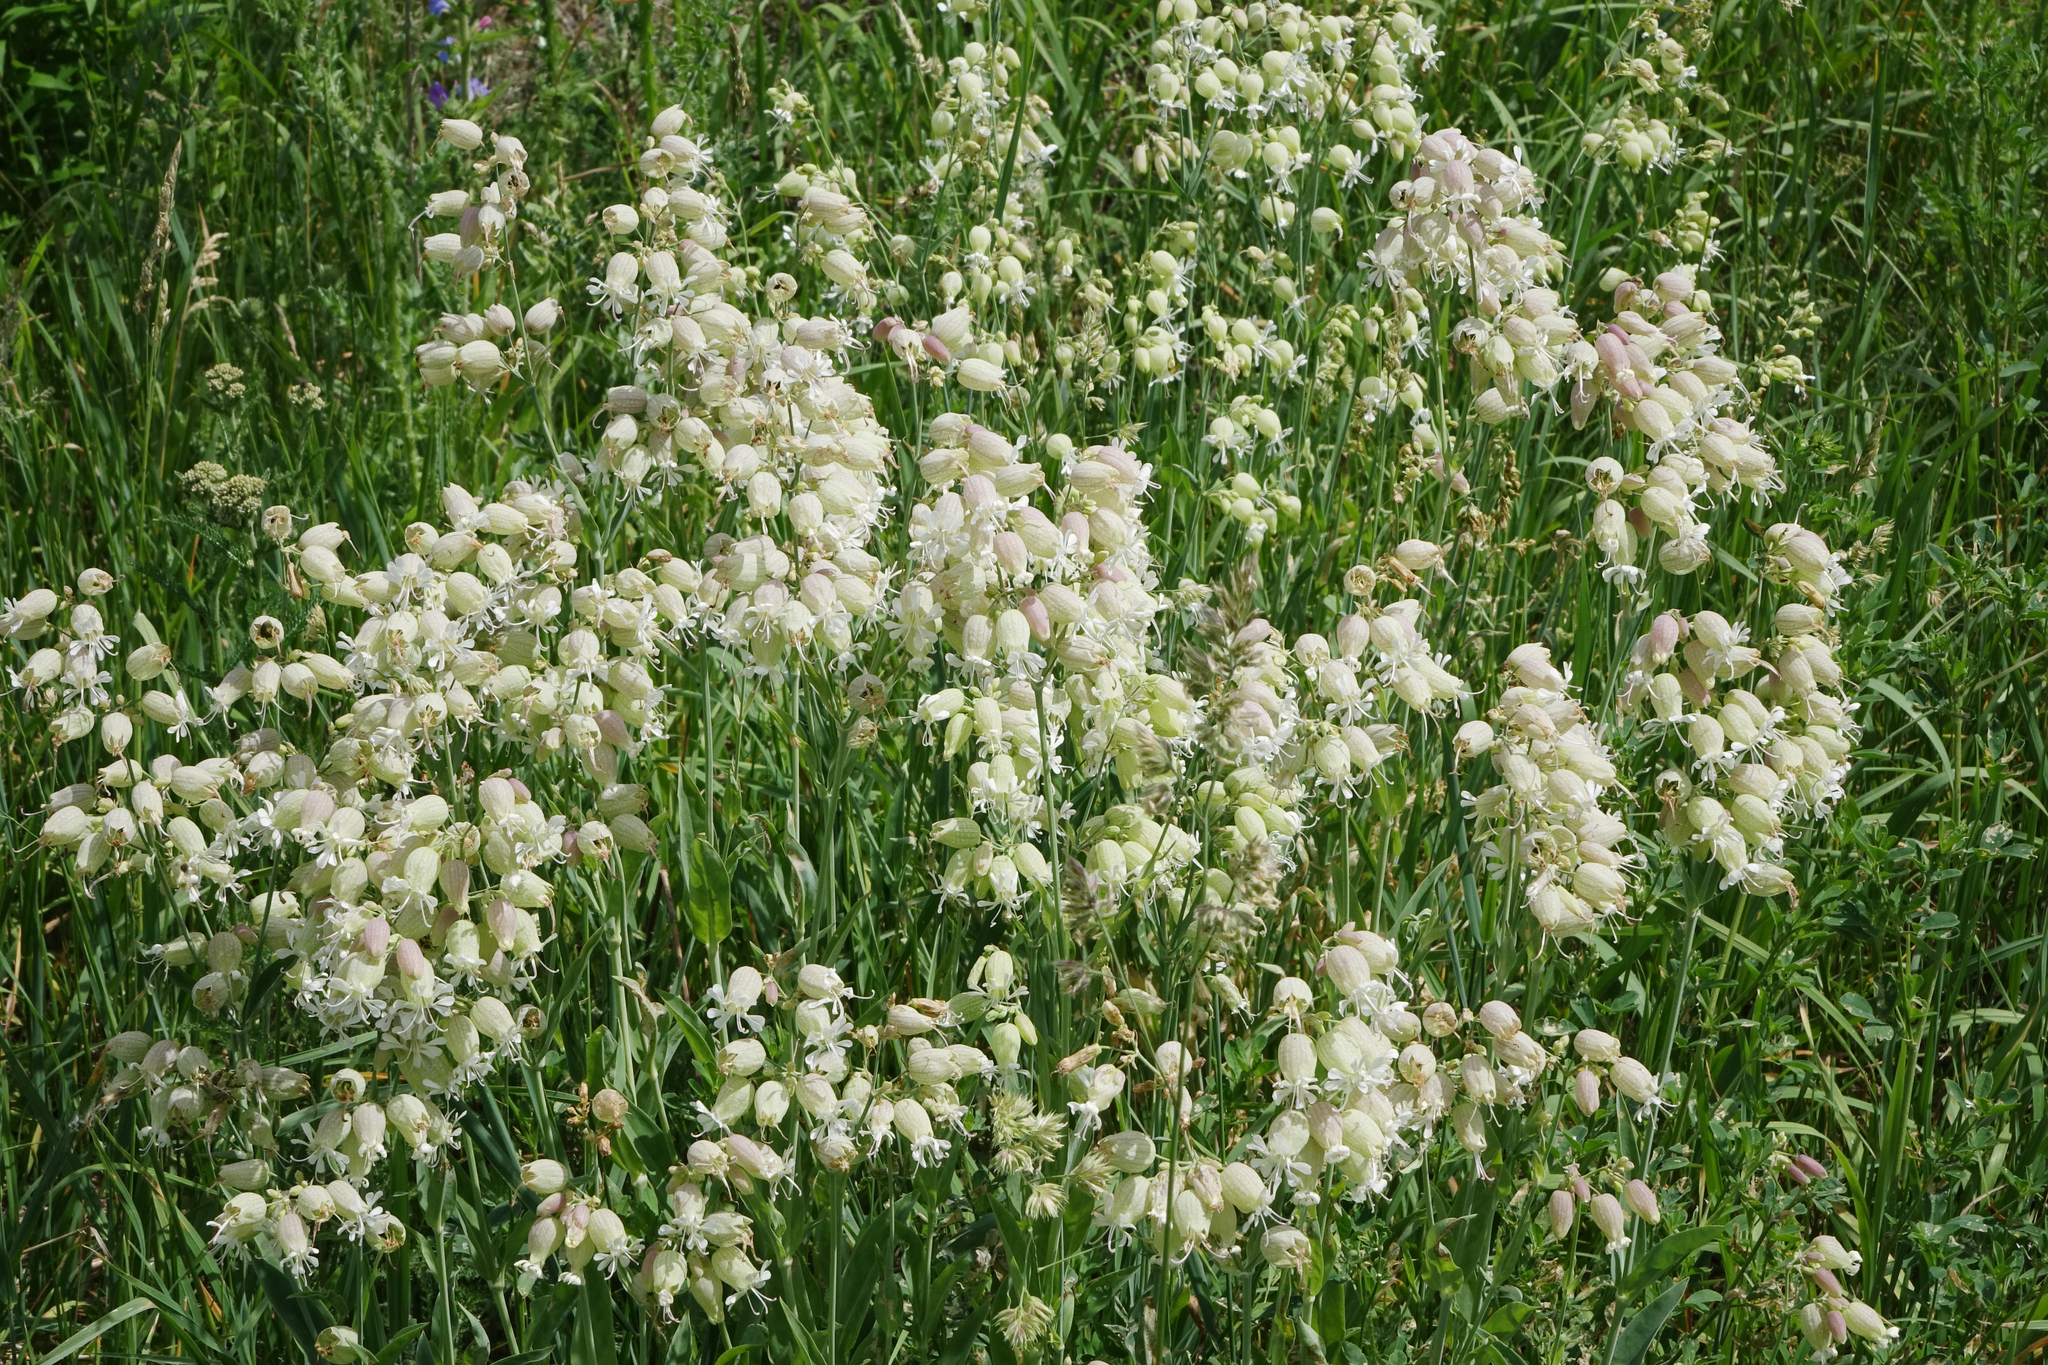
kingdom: Plantae
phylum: Tracheophyta
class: Magnoliopsida
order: Caryophyllales
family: Caryophyllaceae
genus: Silene
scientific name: Silene vulgaris
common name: Bladder campion
